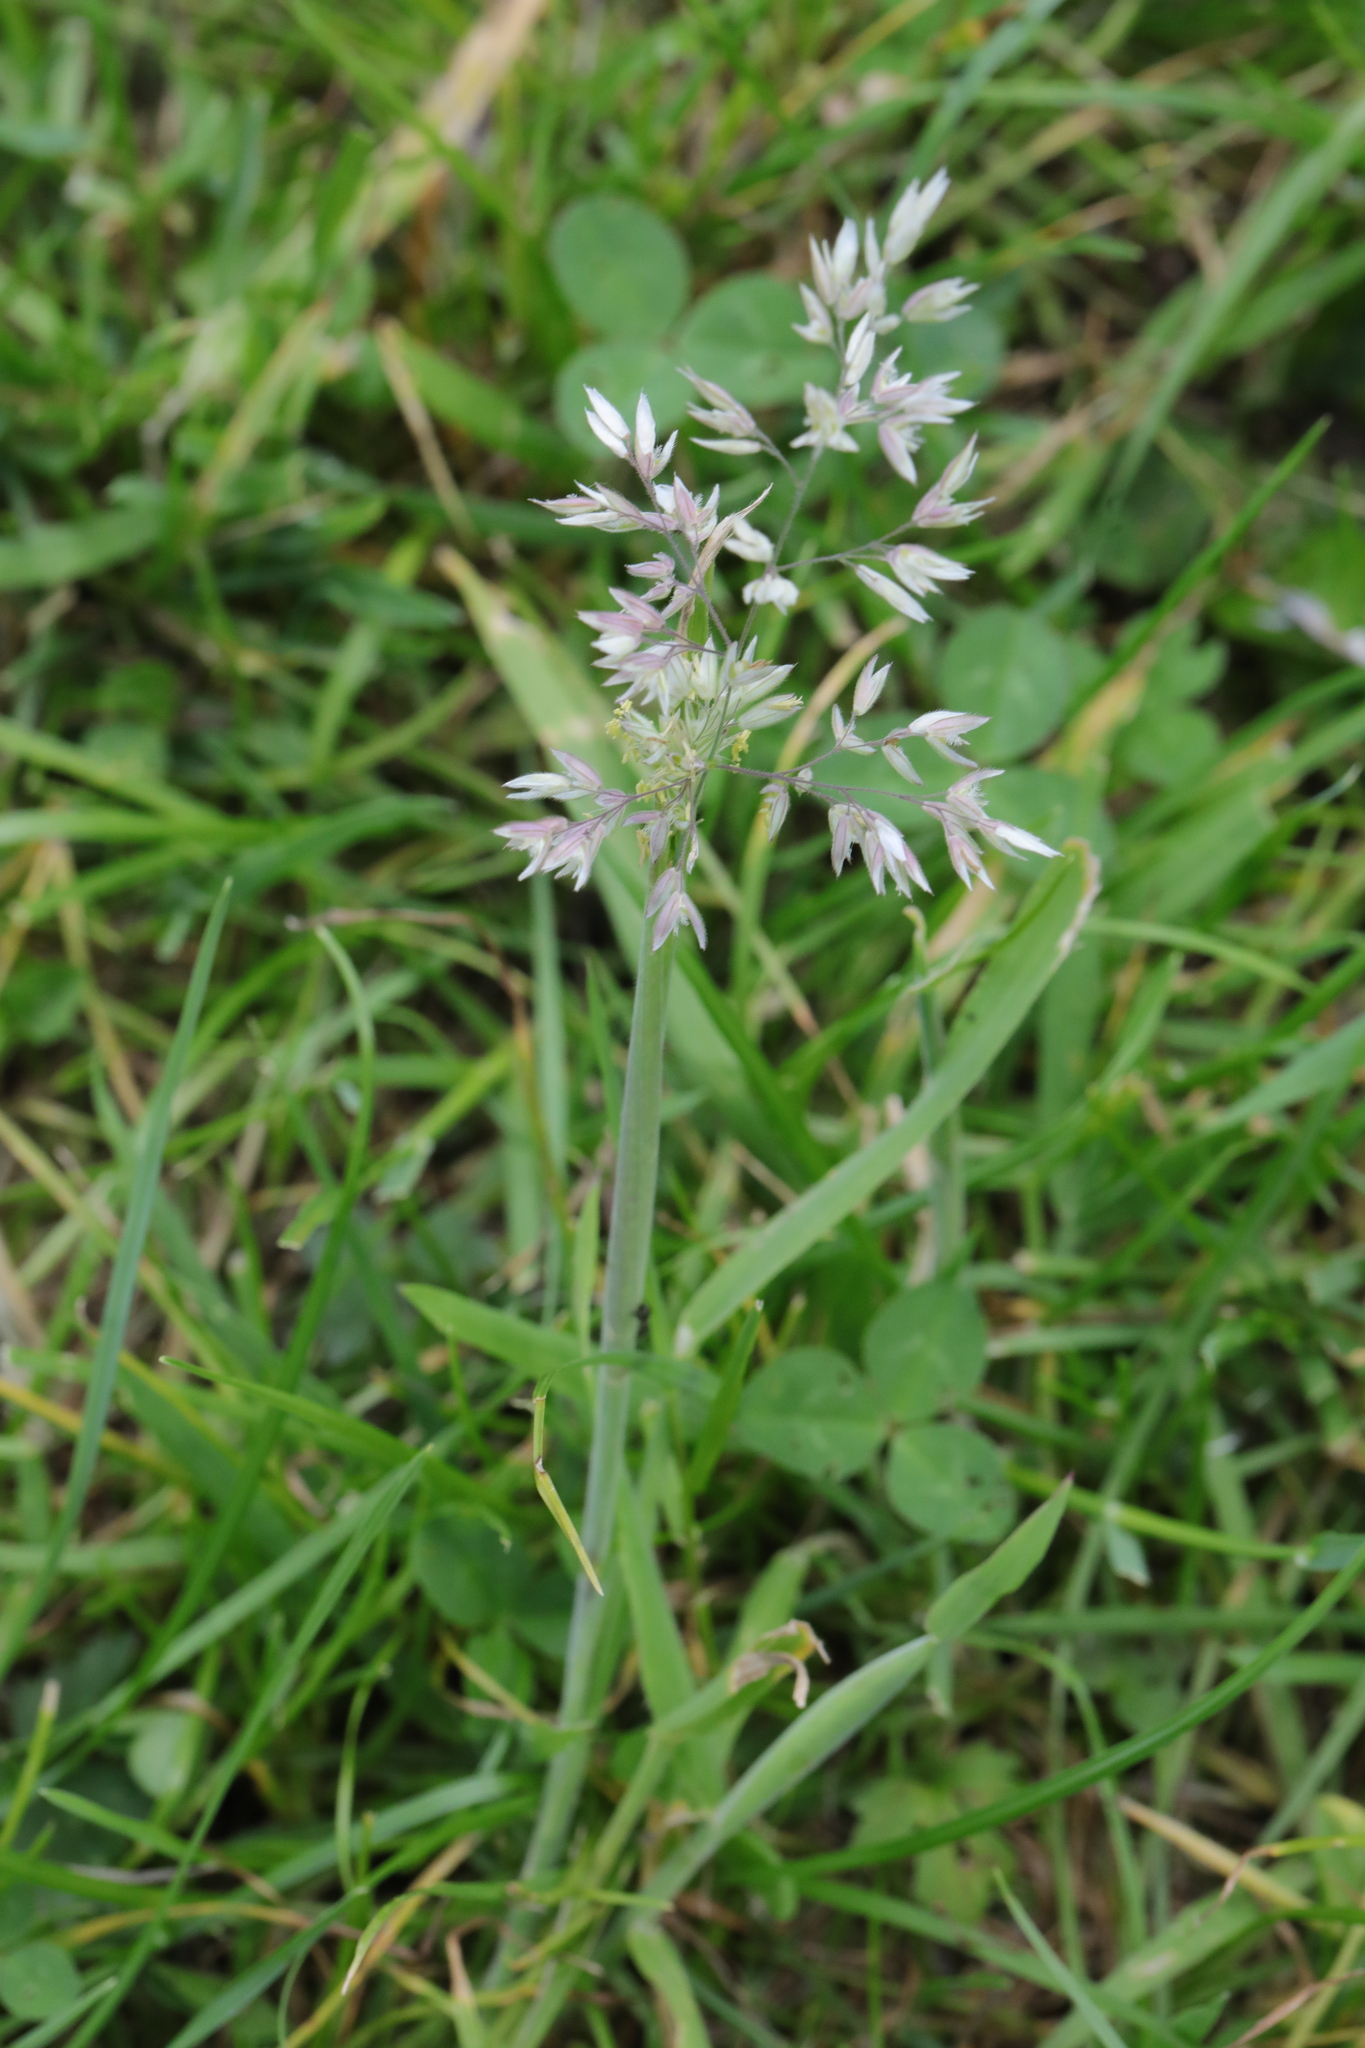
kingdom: Plantae
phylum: Tracheophyta
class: Liliopsida
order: Poales
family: Poaceae
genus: Holcus
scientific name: Holcus lanatus
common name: Yorkshire-fog
